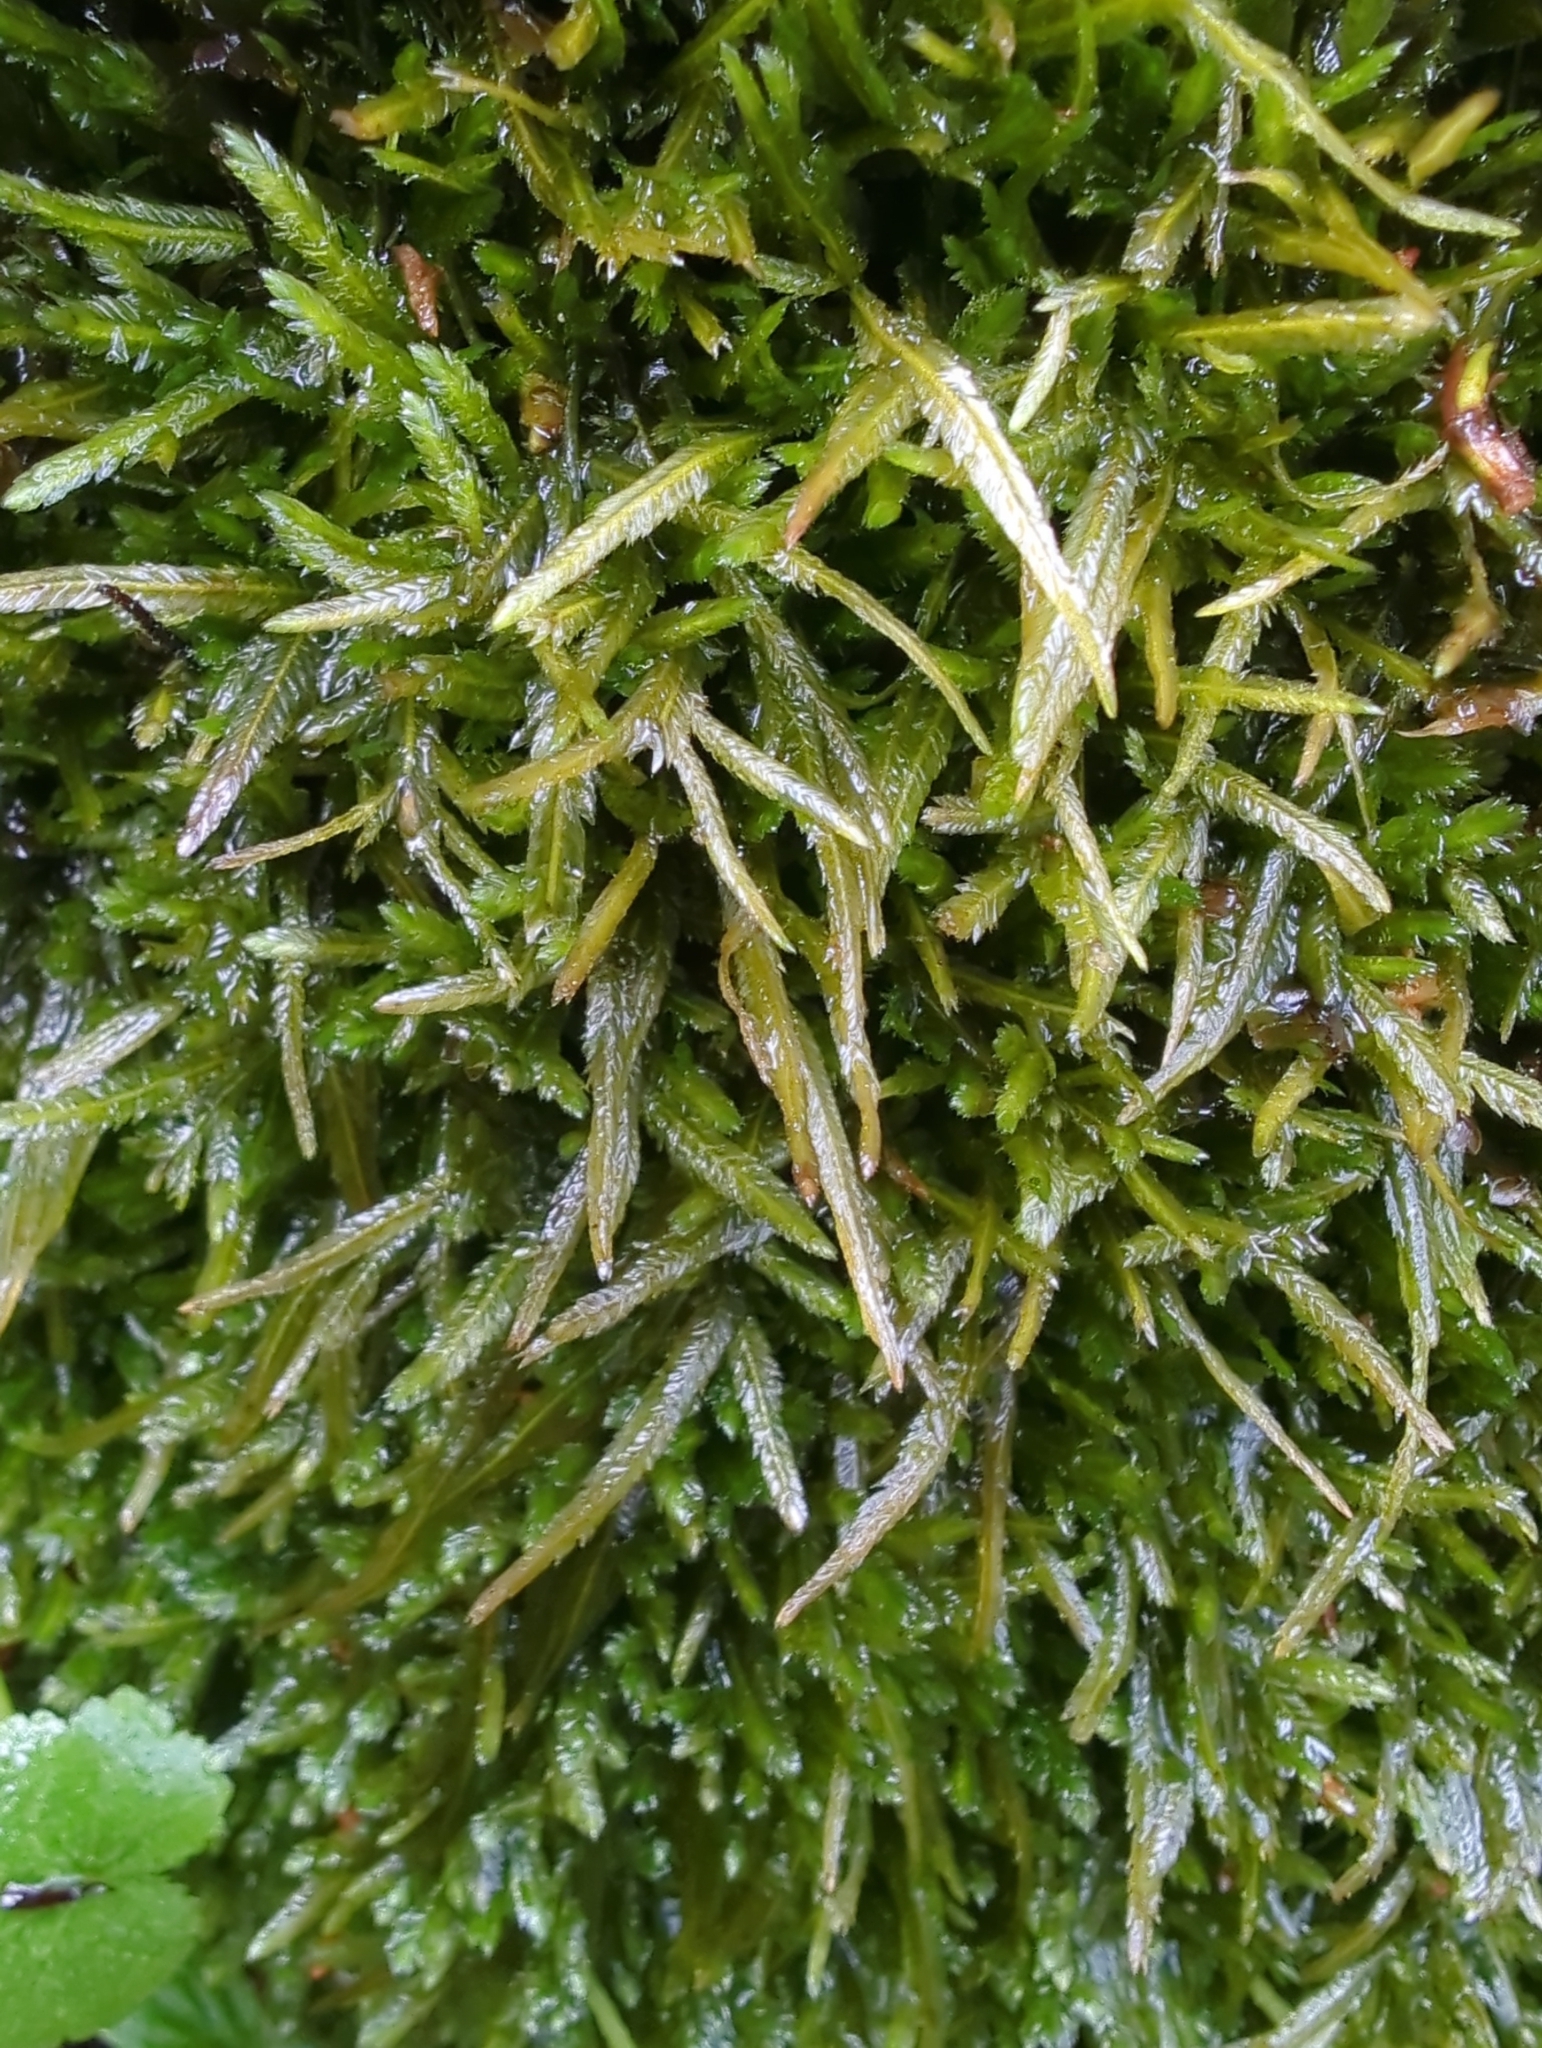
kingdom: Plantae
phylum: Bryophyta
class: Bryopsida
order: Hypnales
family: Catagoniaceae
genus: Catagonium
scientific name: Catagonium nitens
